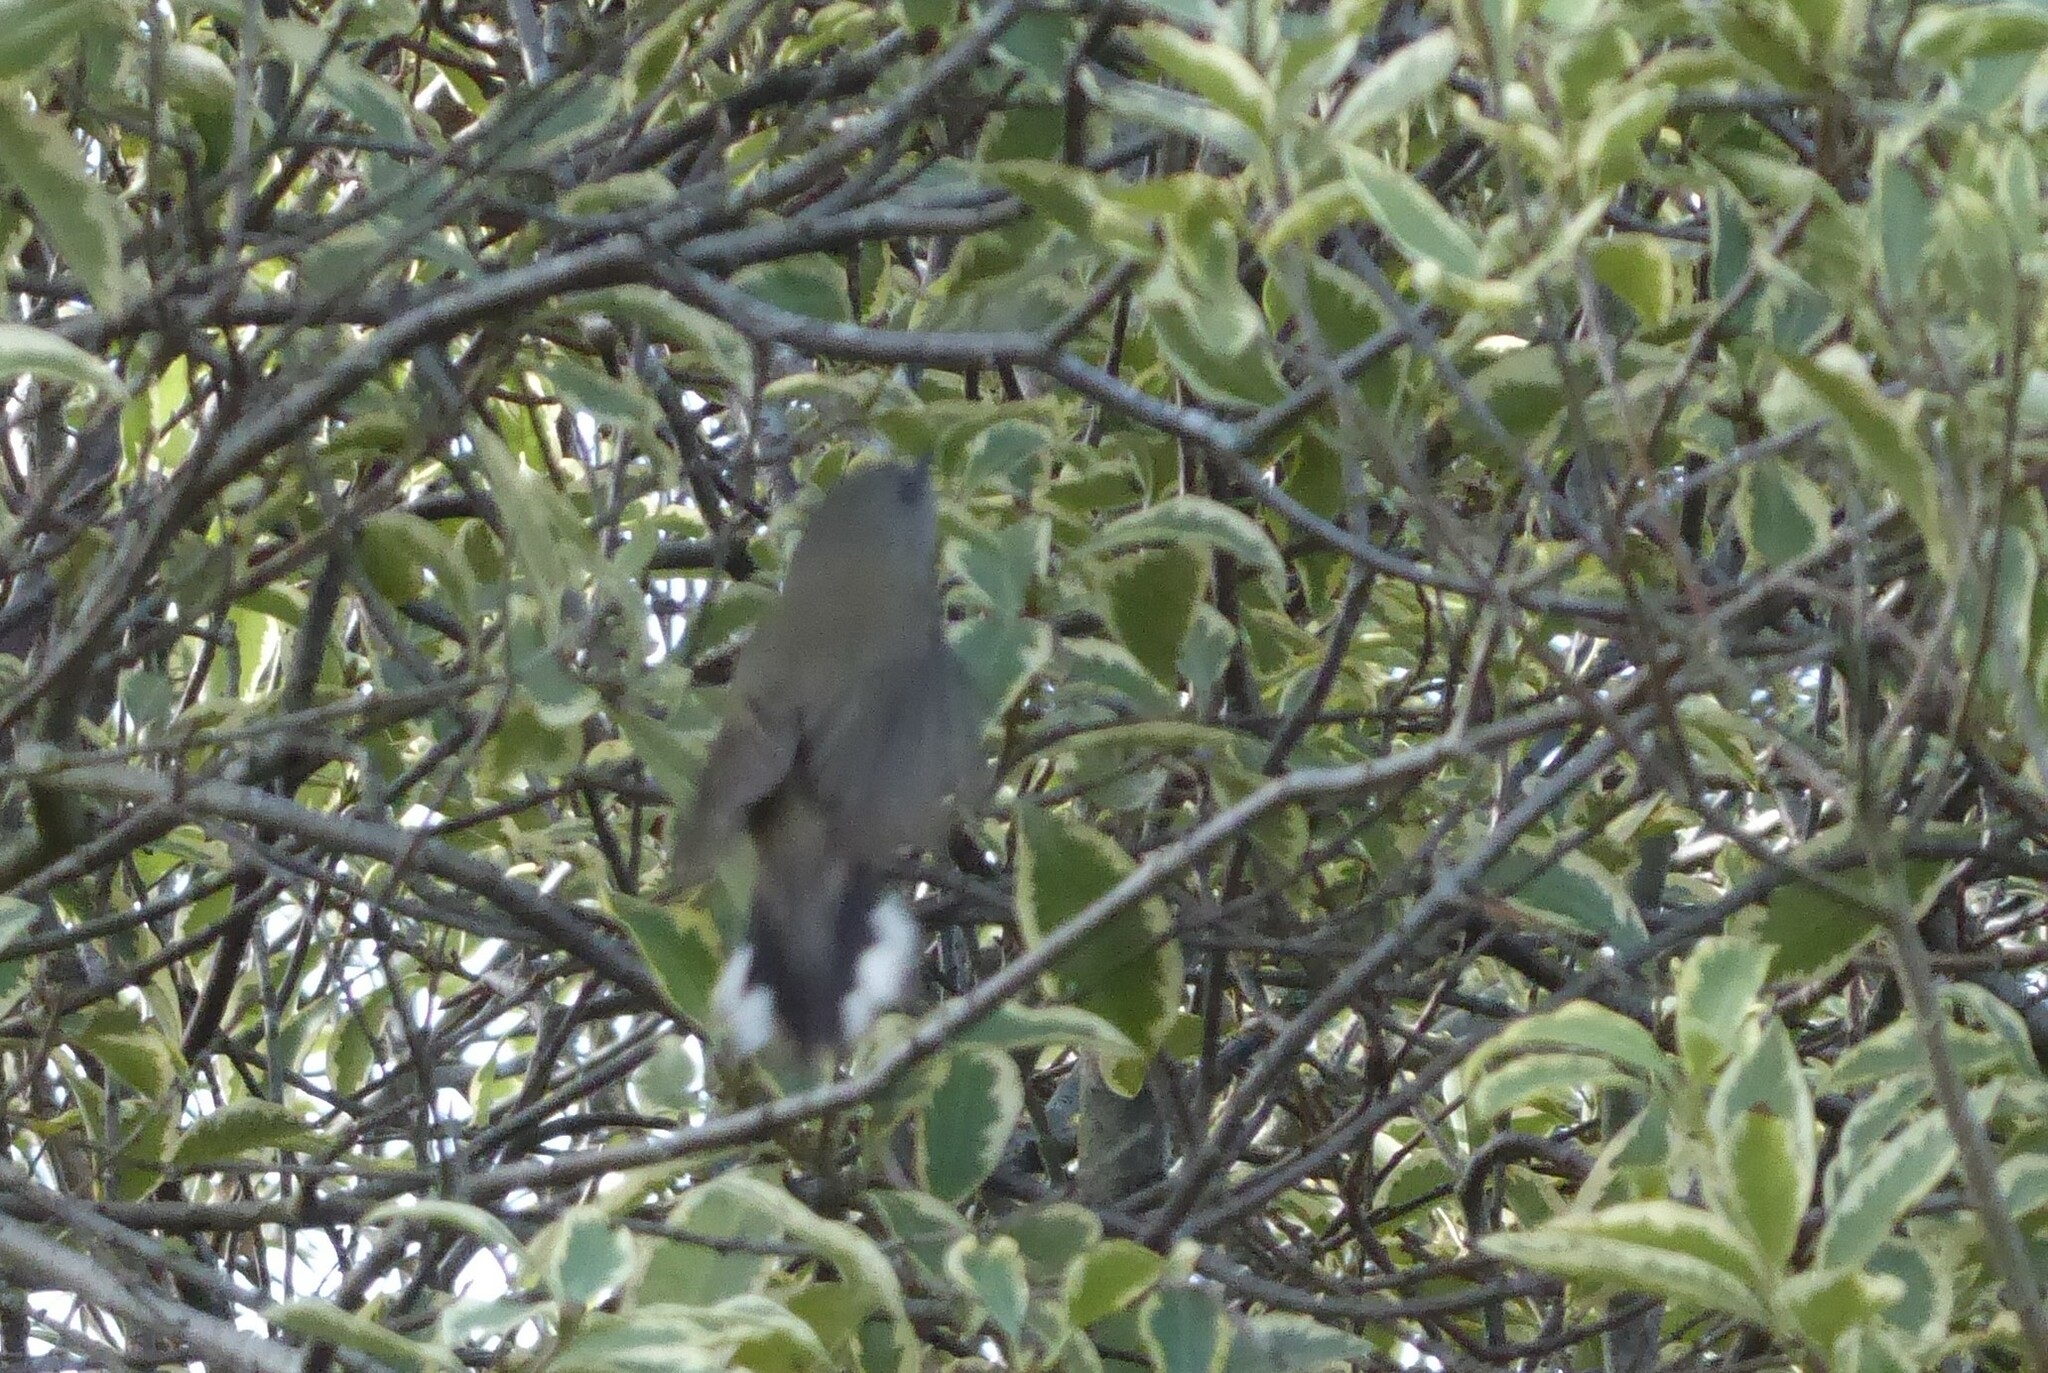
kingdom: Animalia
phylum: Chordata
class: Aves
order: Passeriformes
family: Acanthizidae
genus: Gerygone
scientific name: Gerygone igata
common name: Grey gerygone
